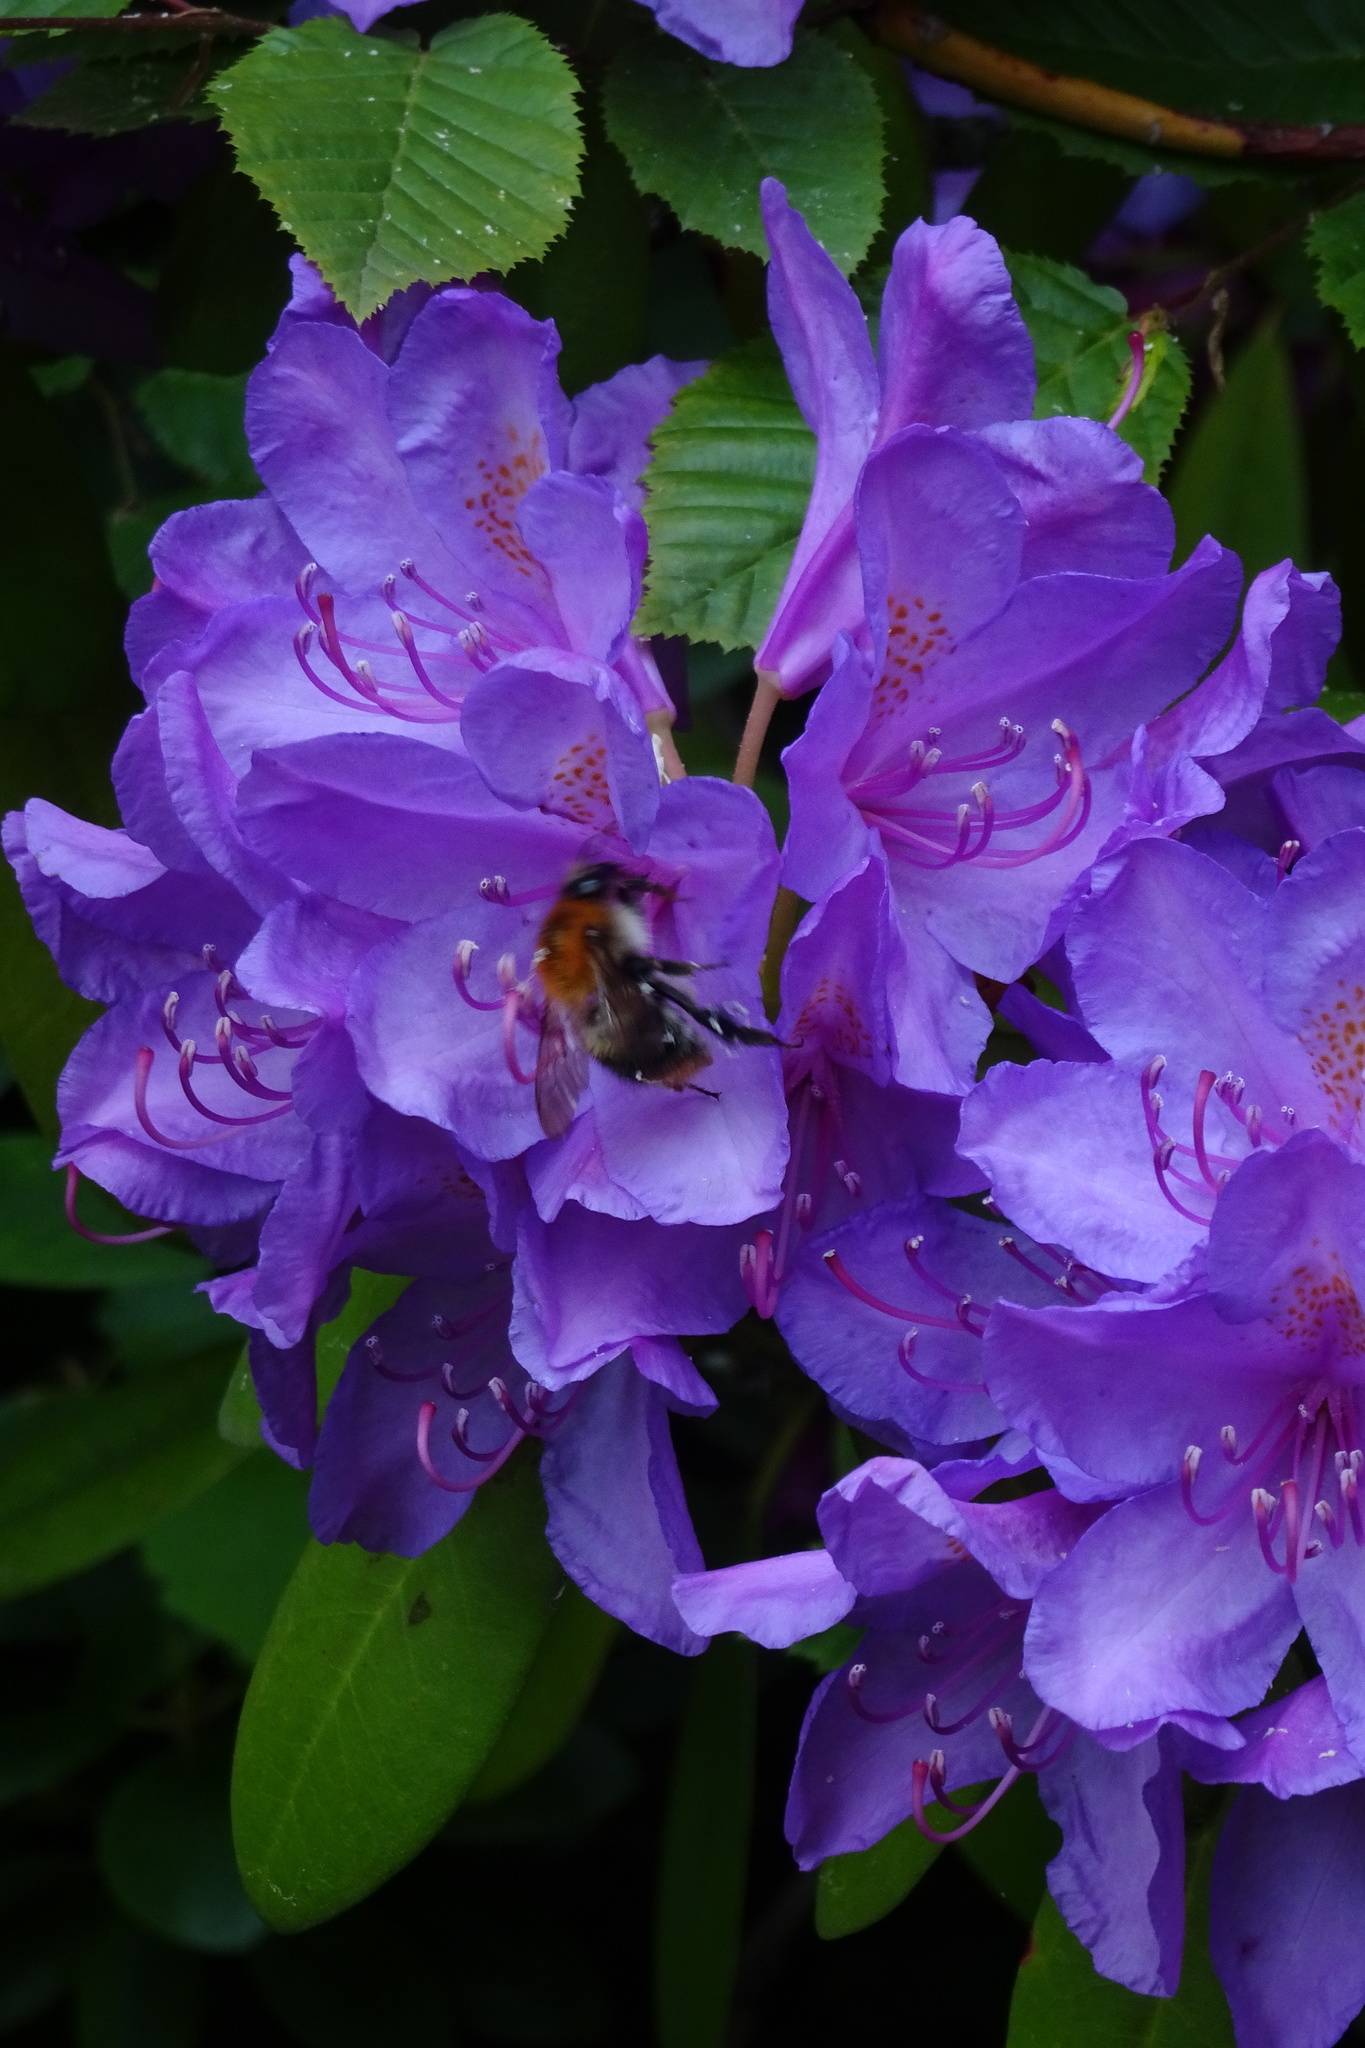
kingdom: Animalia
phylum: Arthropoda
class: Insecta
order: Hymenoptera
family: Apidae
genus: Bombus
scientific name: Bombus pascuorum
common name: Common carder bee
